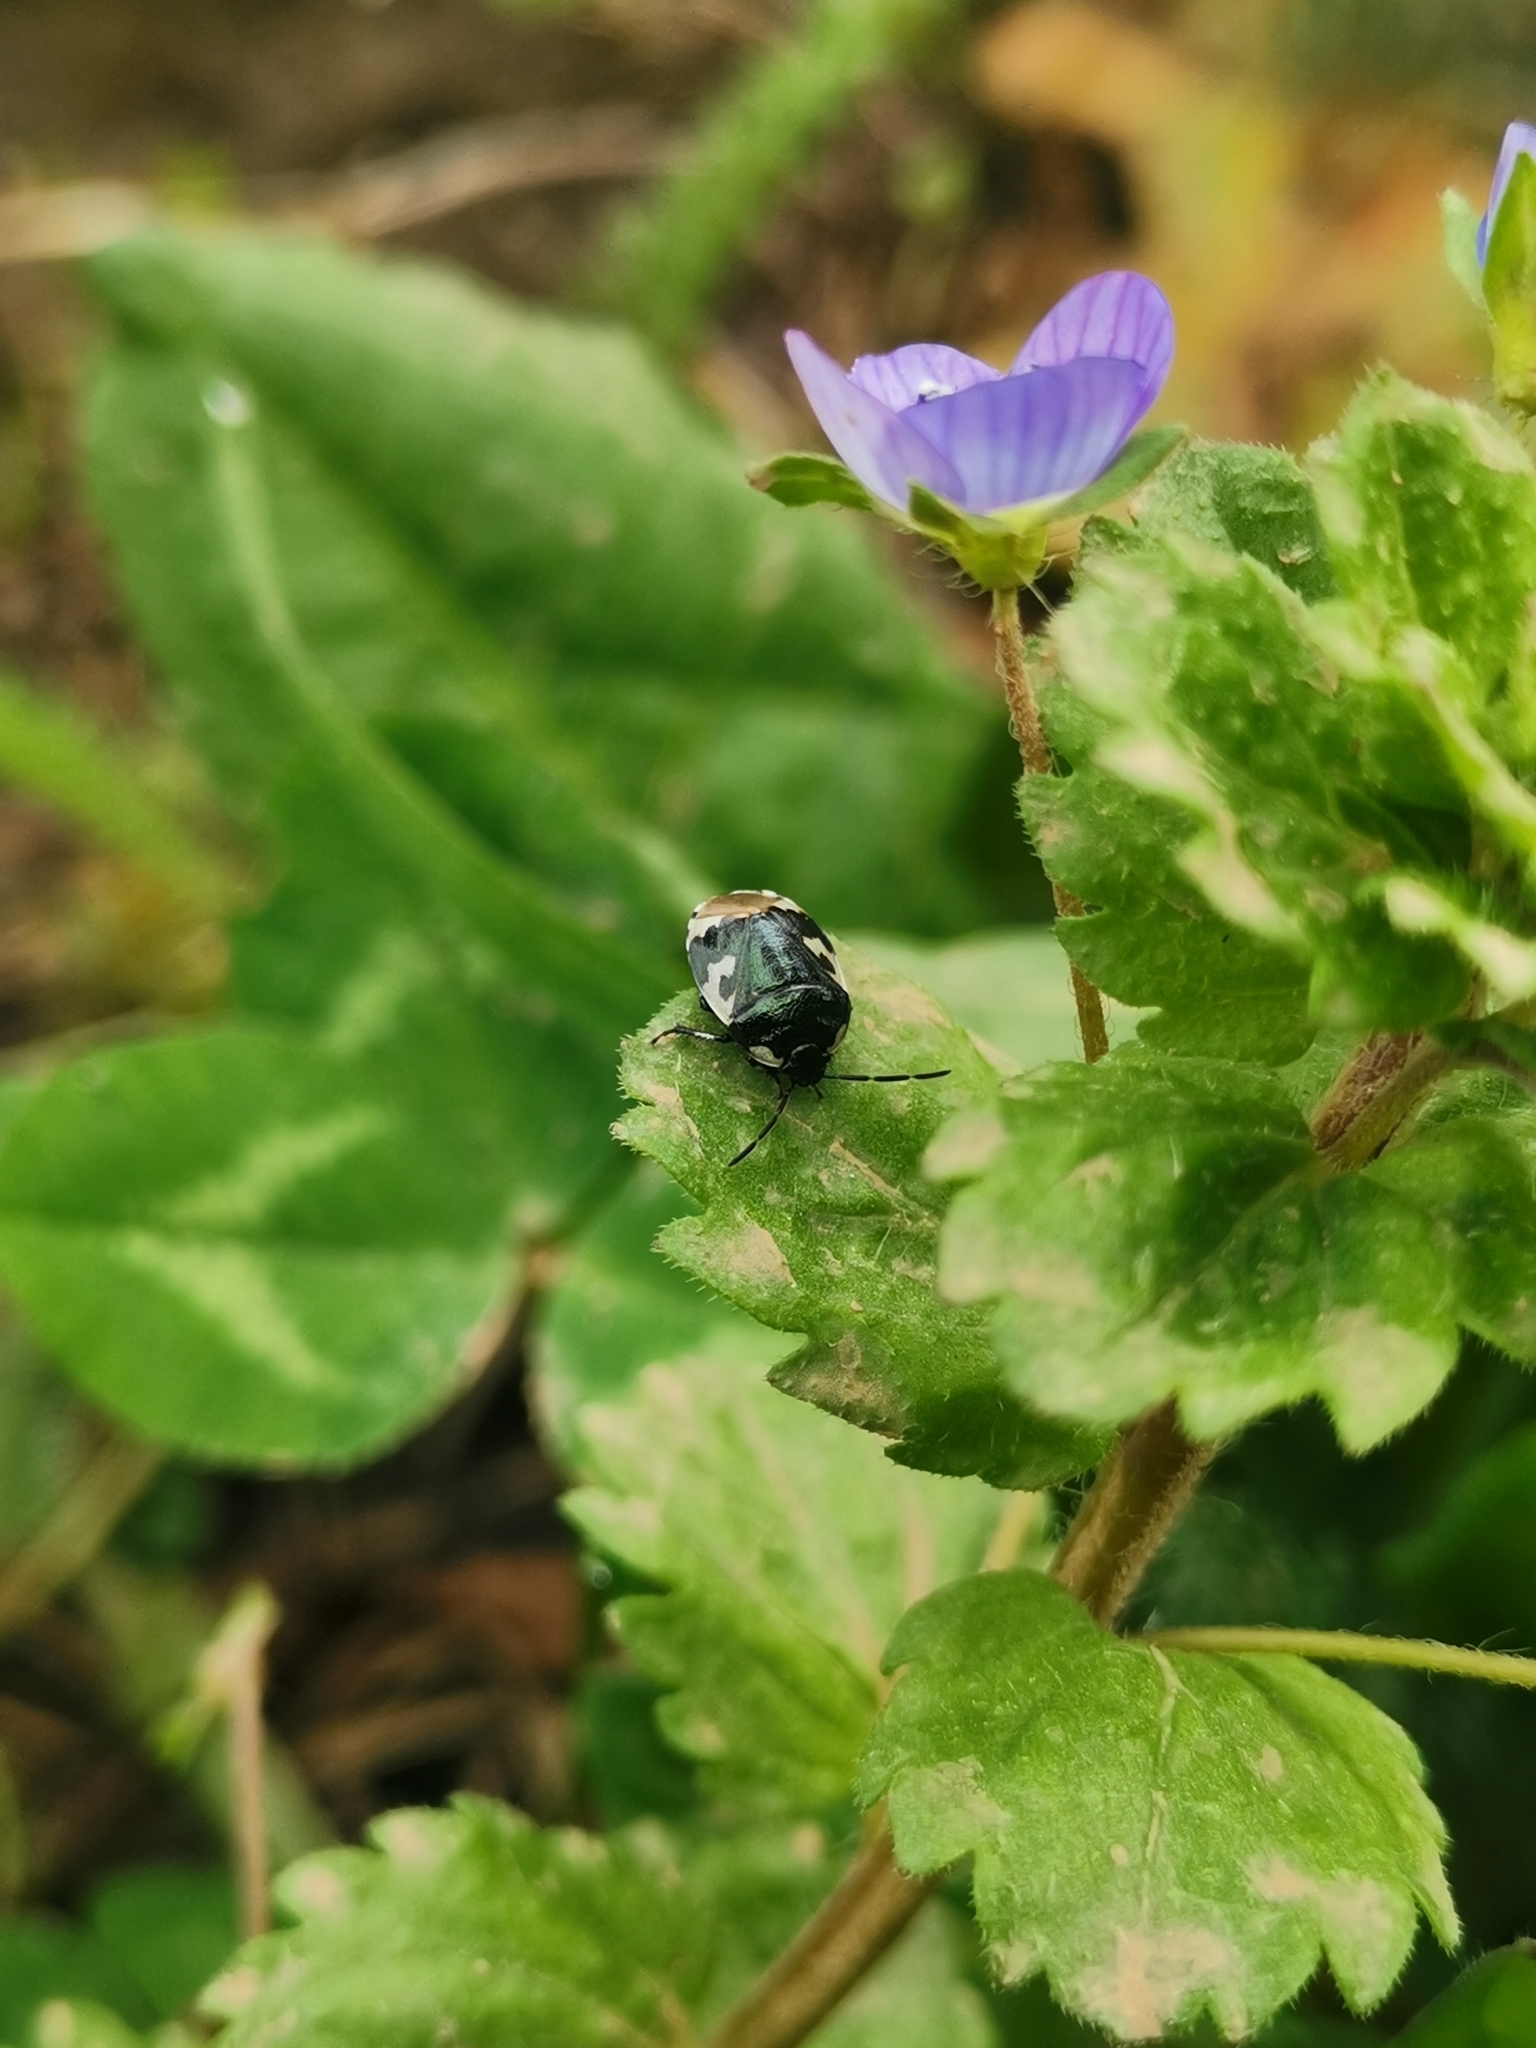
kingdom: Animalia
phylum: Arthropoda
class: Insecta
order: Hemiptera
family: Cydnidae
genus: Tritomegas
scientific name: Tritomegas bicolor
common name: Pied shieldbug
